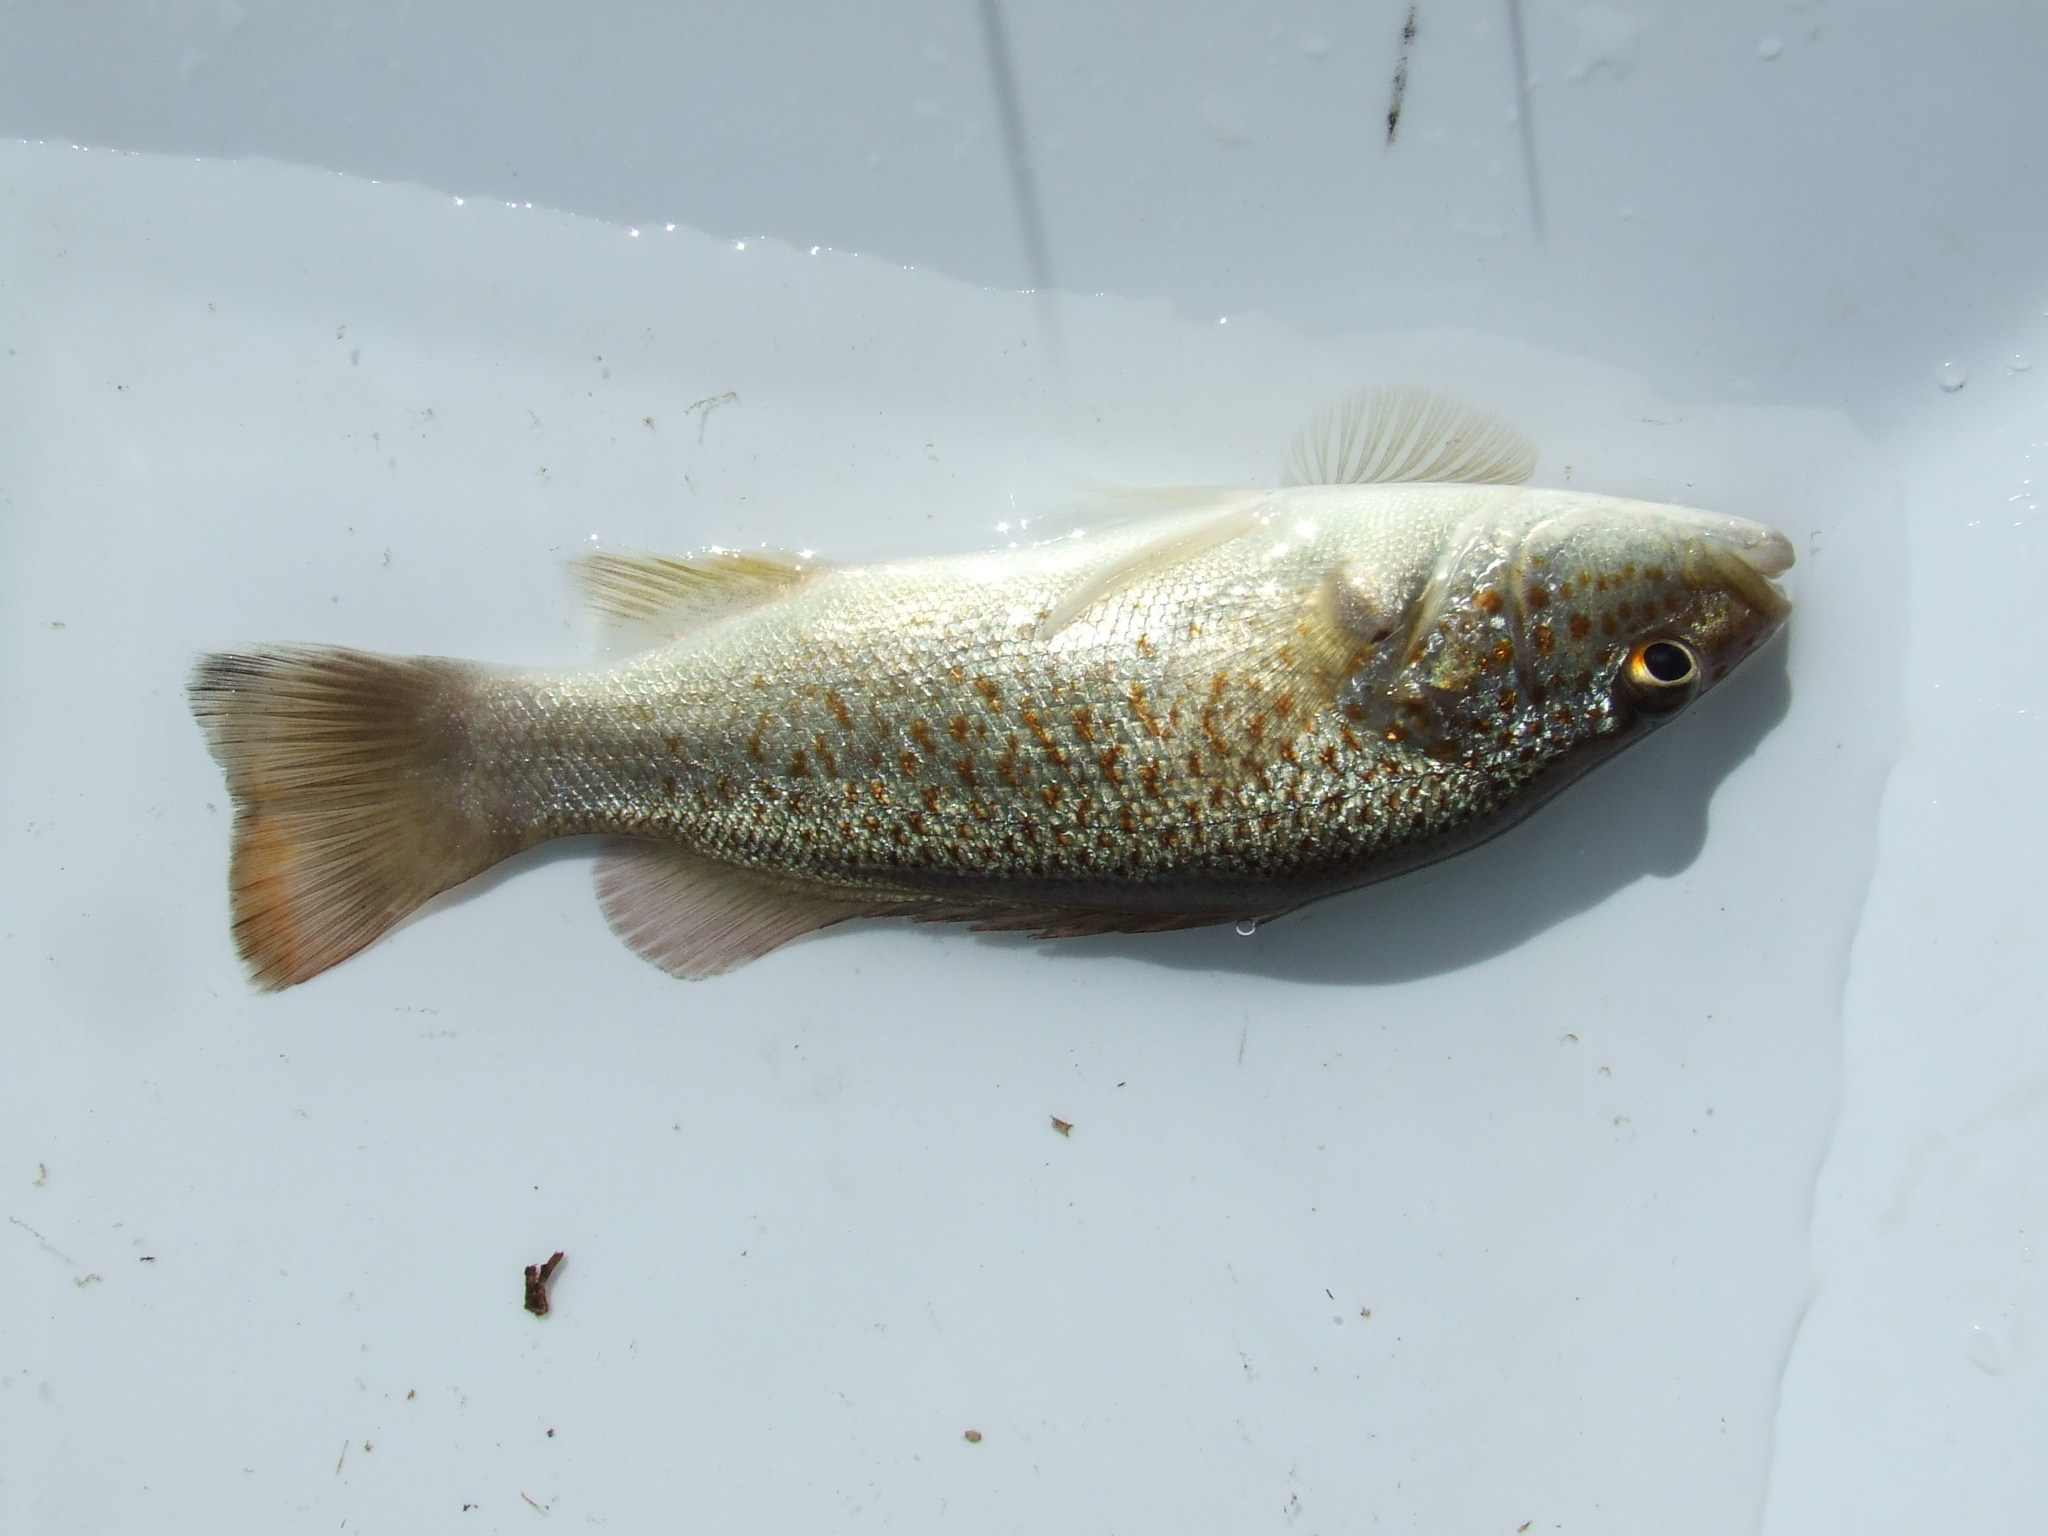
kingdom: Animalia
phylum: Chordata
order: Perciformes
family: Terapontidae
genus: Leiopotherapon
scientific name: Leiopotherapon unicolor
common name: Bobby
